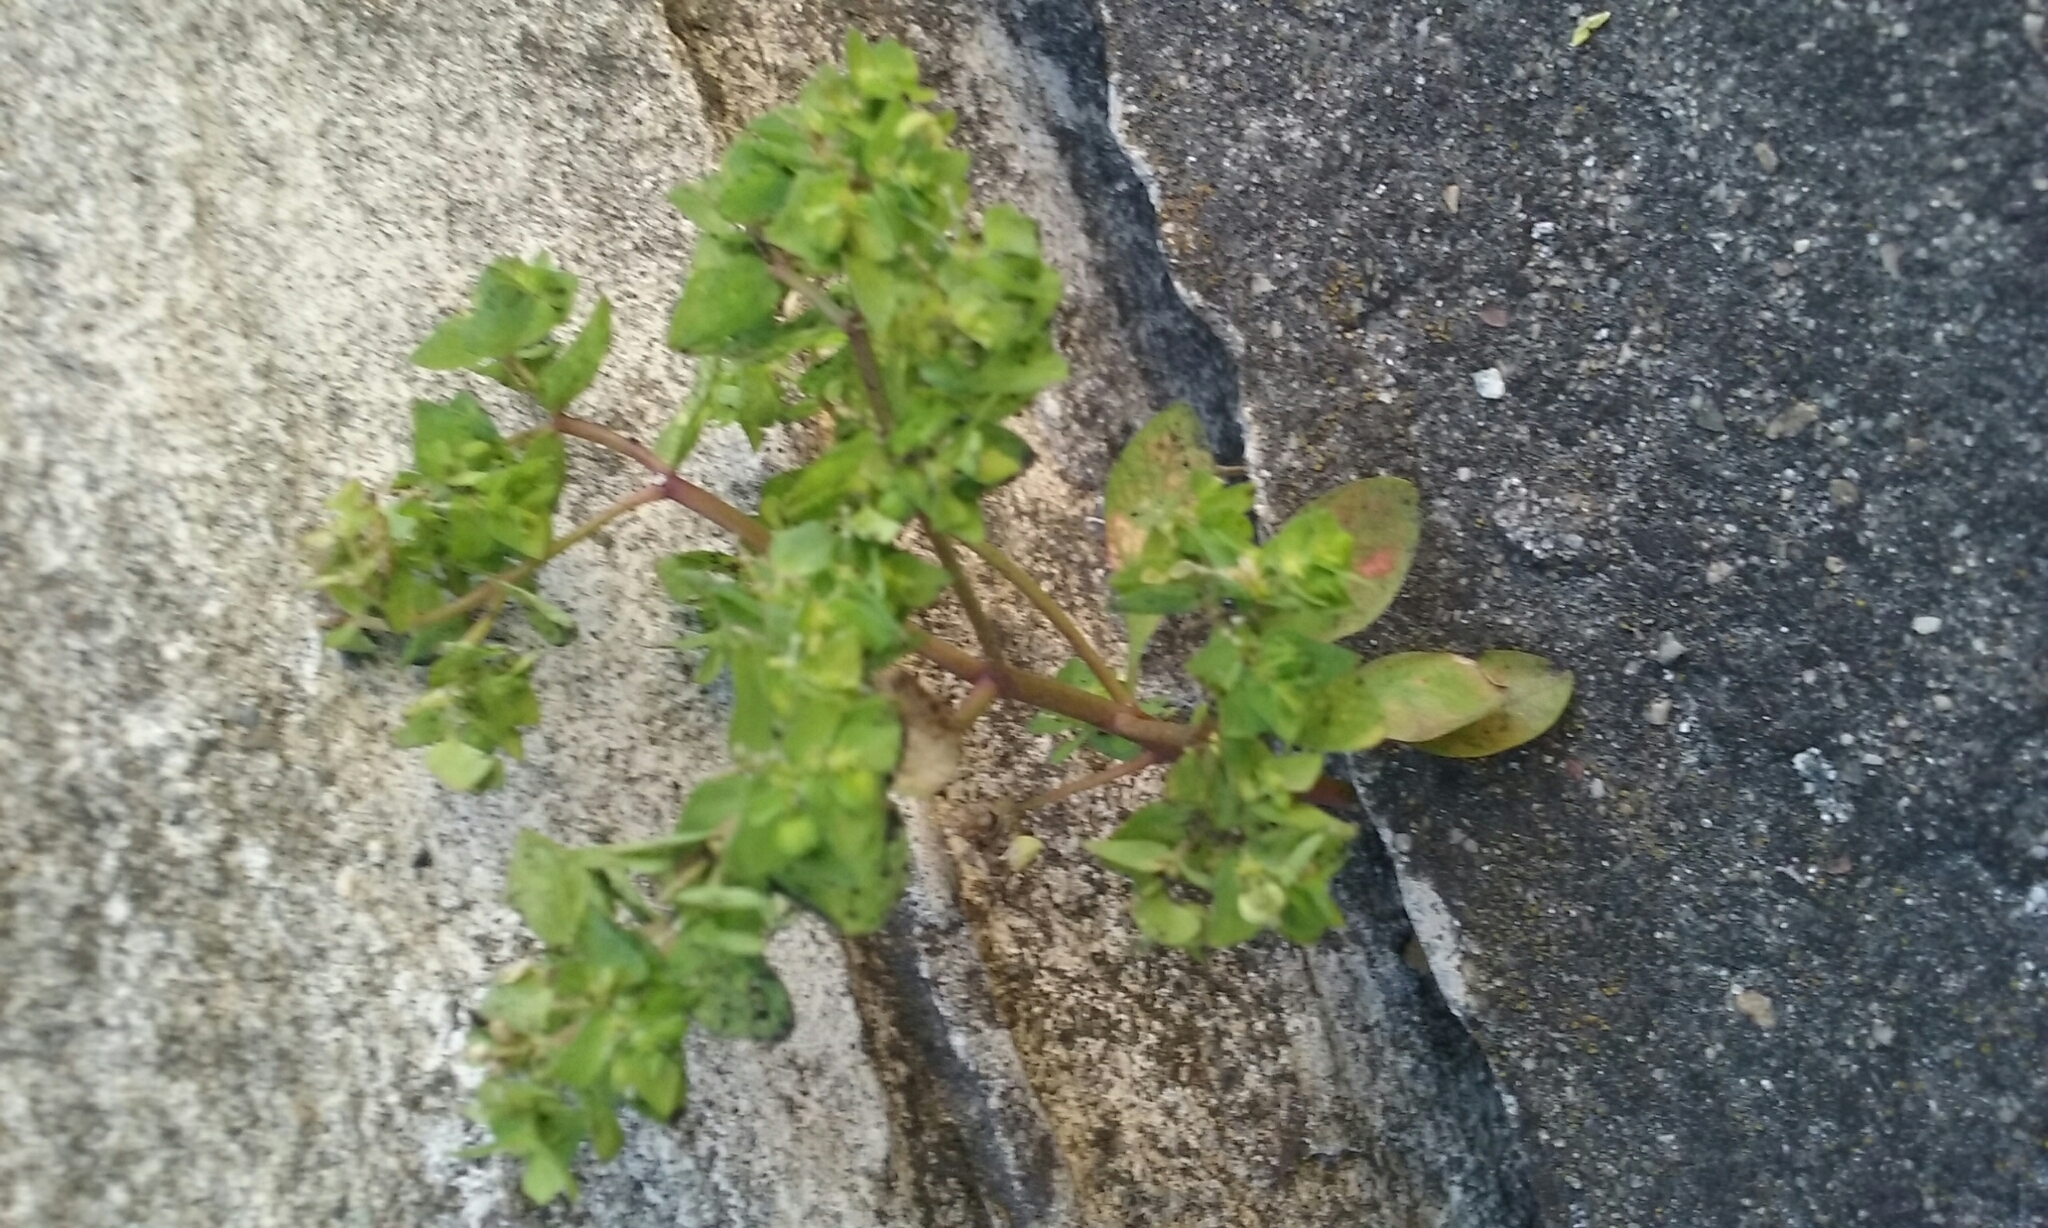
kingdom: Plantae
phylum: Tracheophyta
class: Magnoliopsida
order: Malpighiales
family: Euphorbiaceae
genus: Euphorbia
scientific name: Euphorbia peplus
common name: Petty spurge
